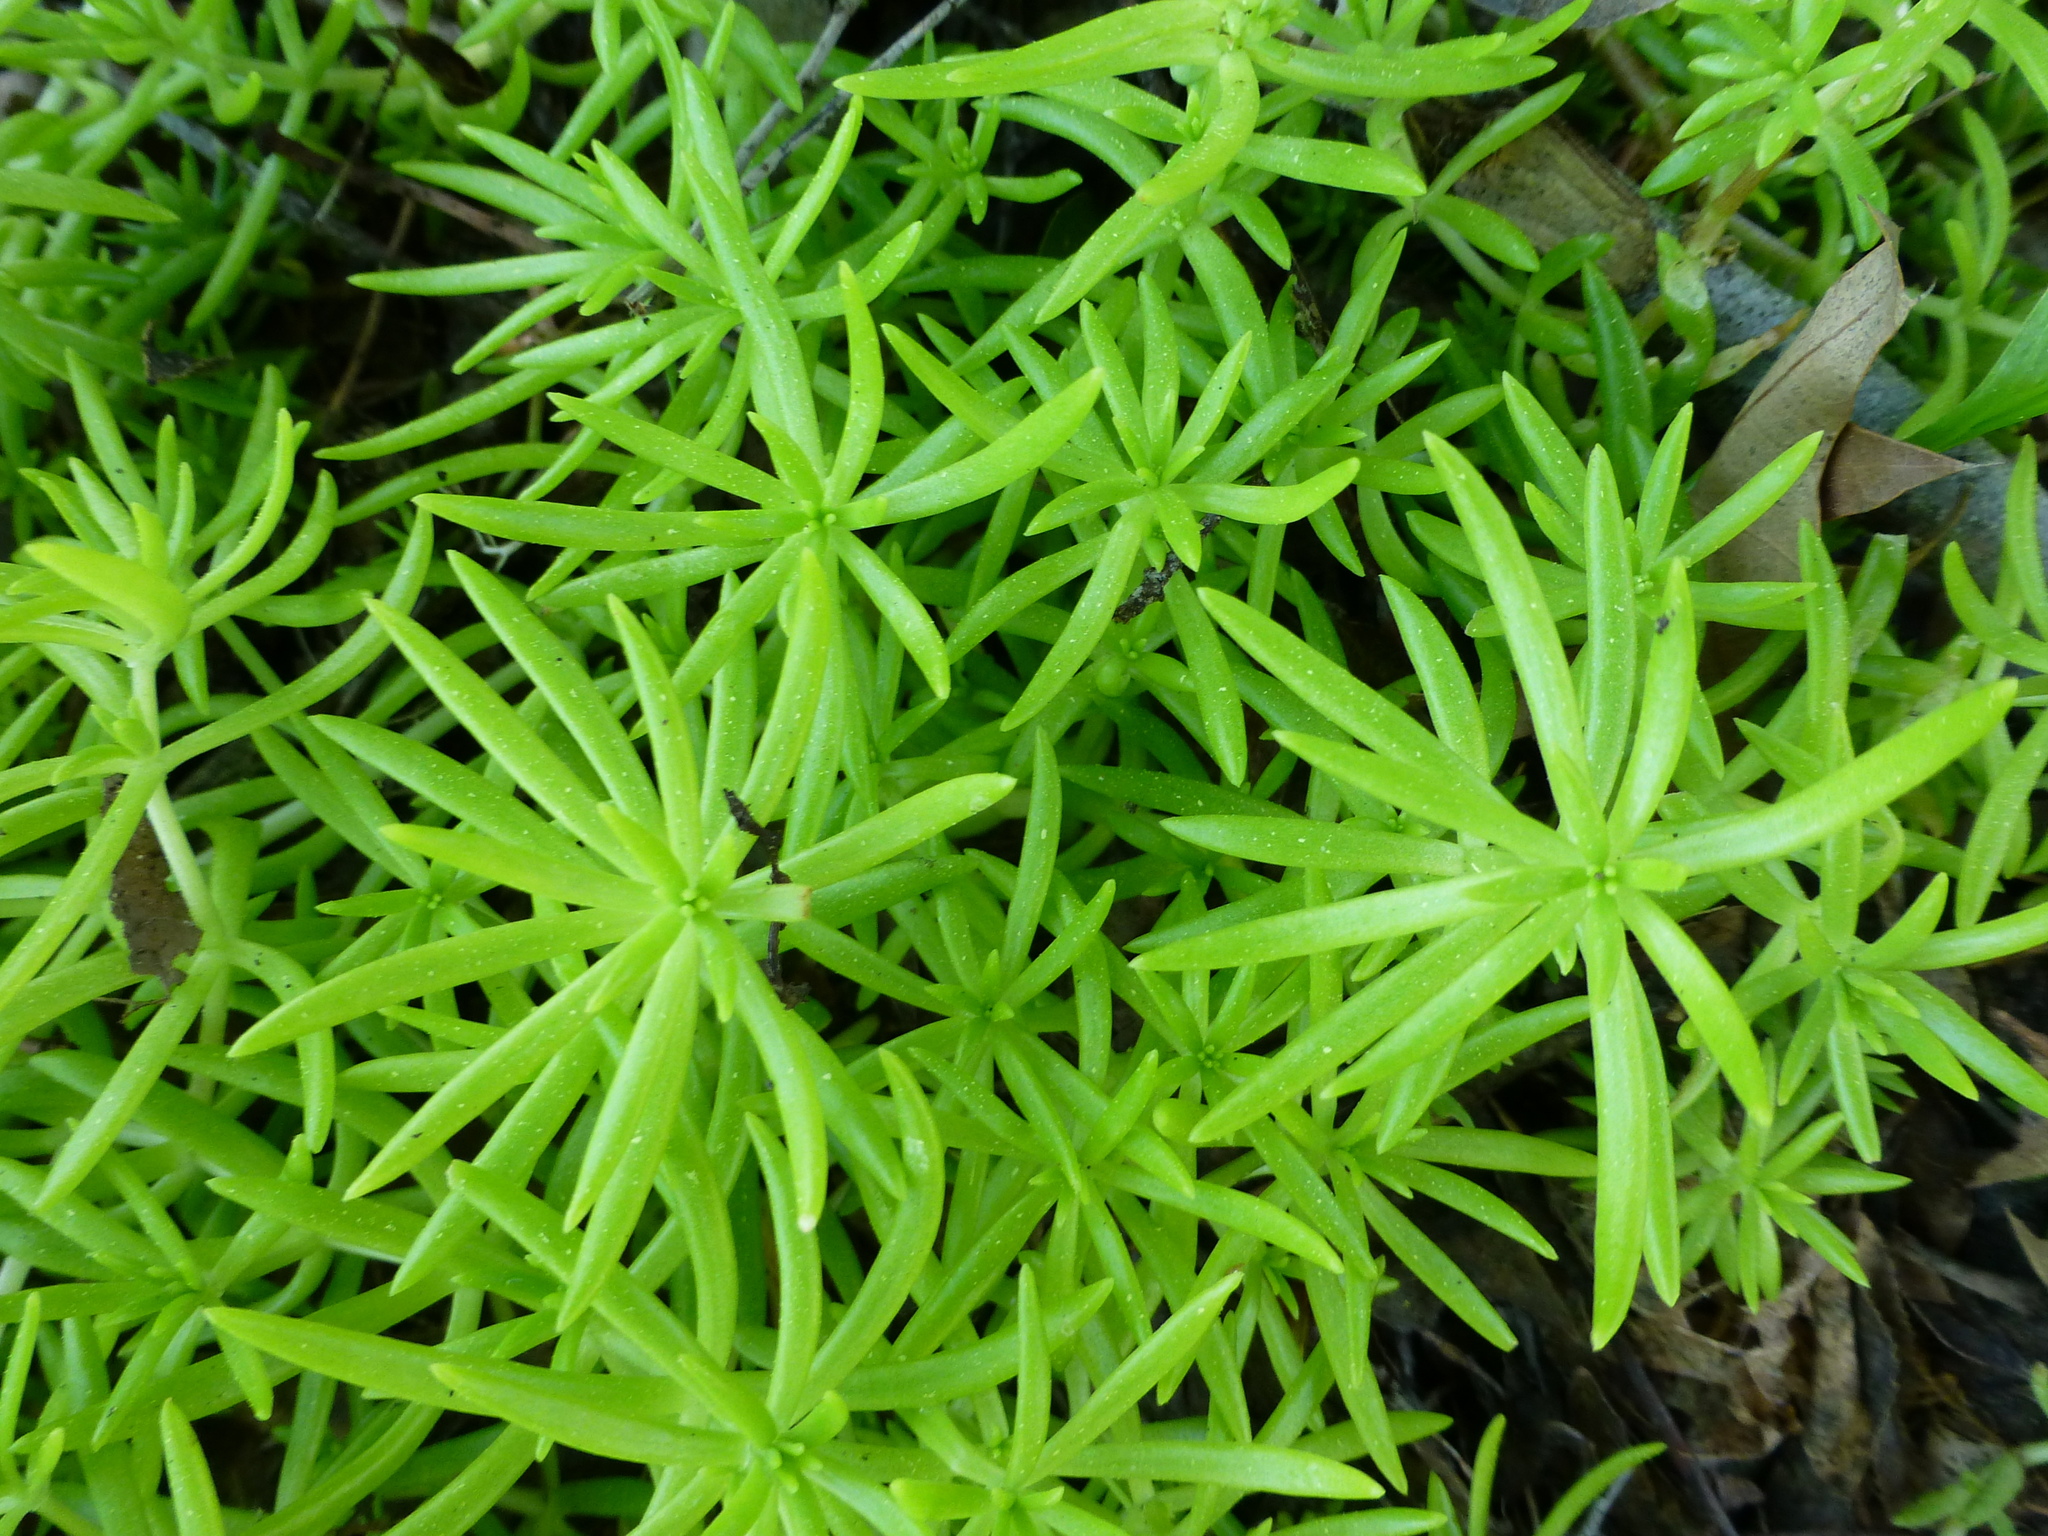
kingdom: Plantae
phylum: Tracheophyta
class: Magnoliopsida
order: Saxifragales
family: Crassulaceae
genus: Sedum
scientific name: Sedum mexicanum
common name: Mexican stonecrop
